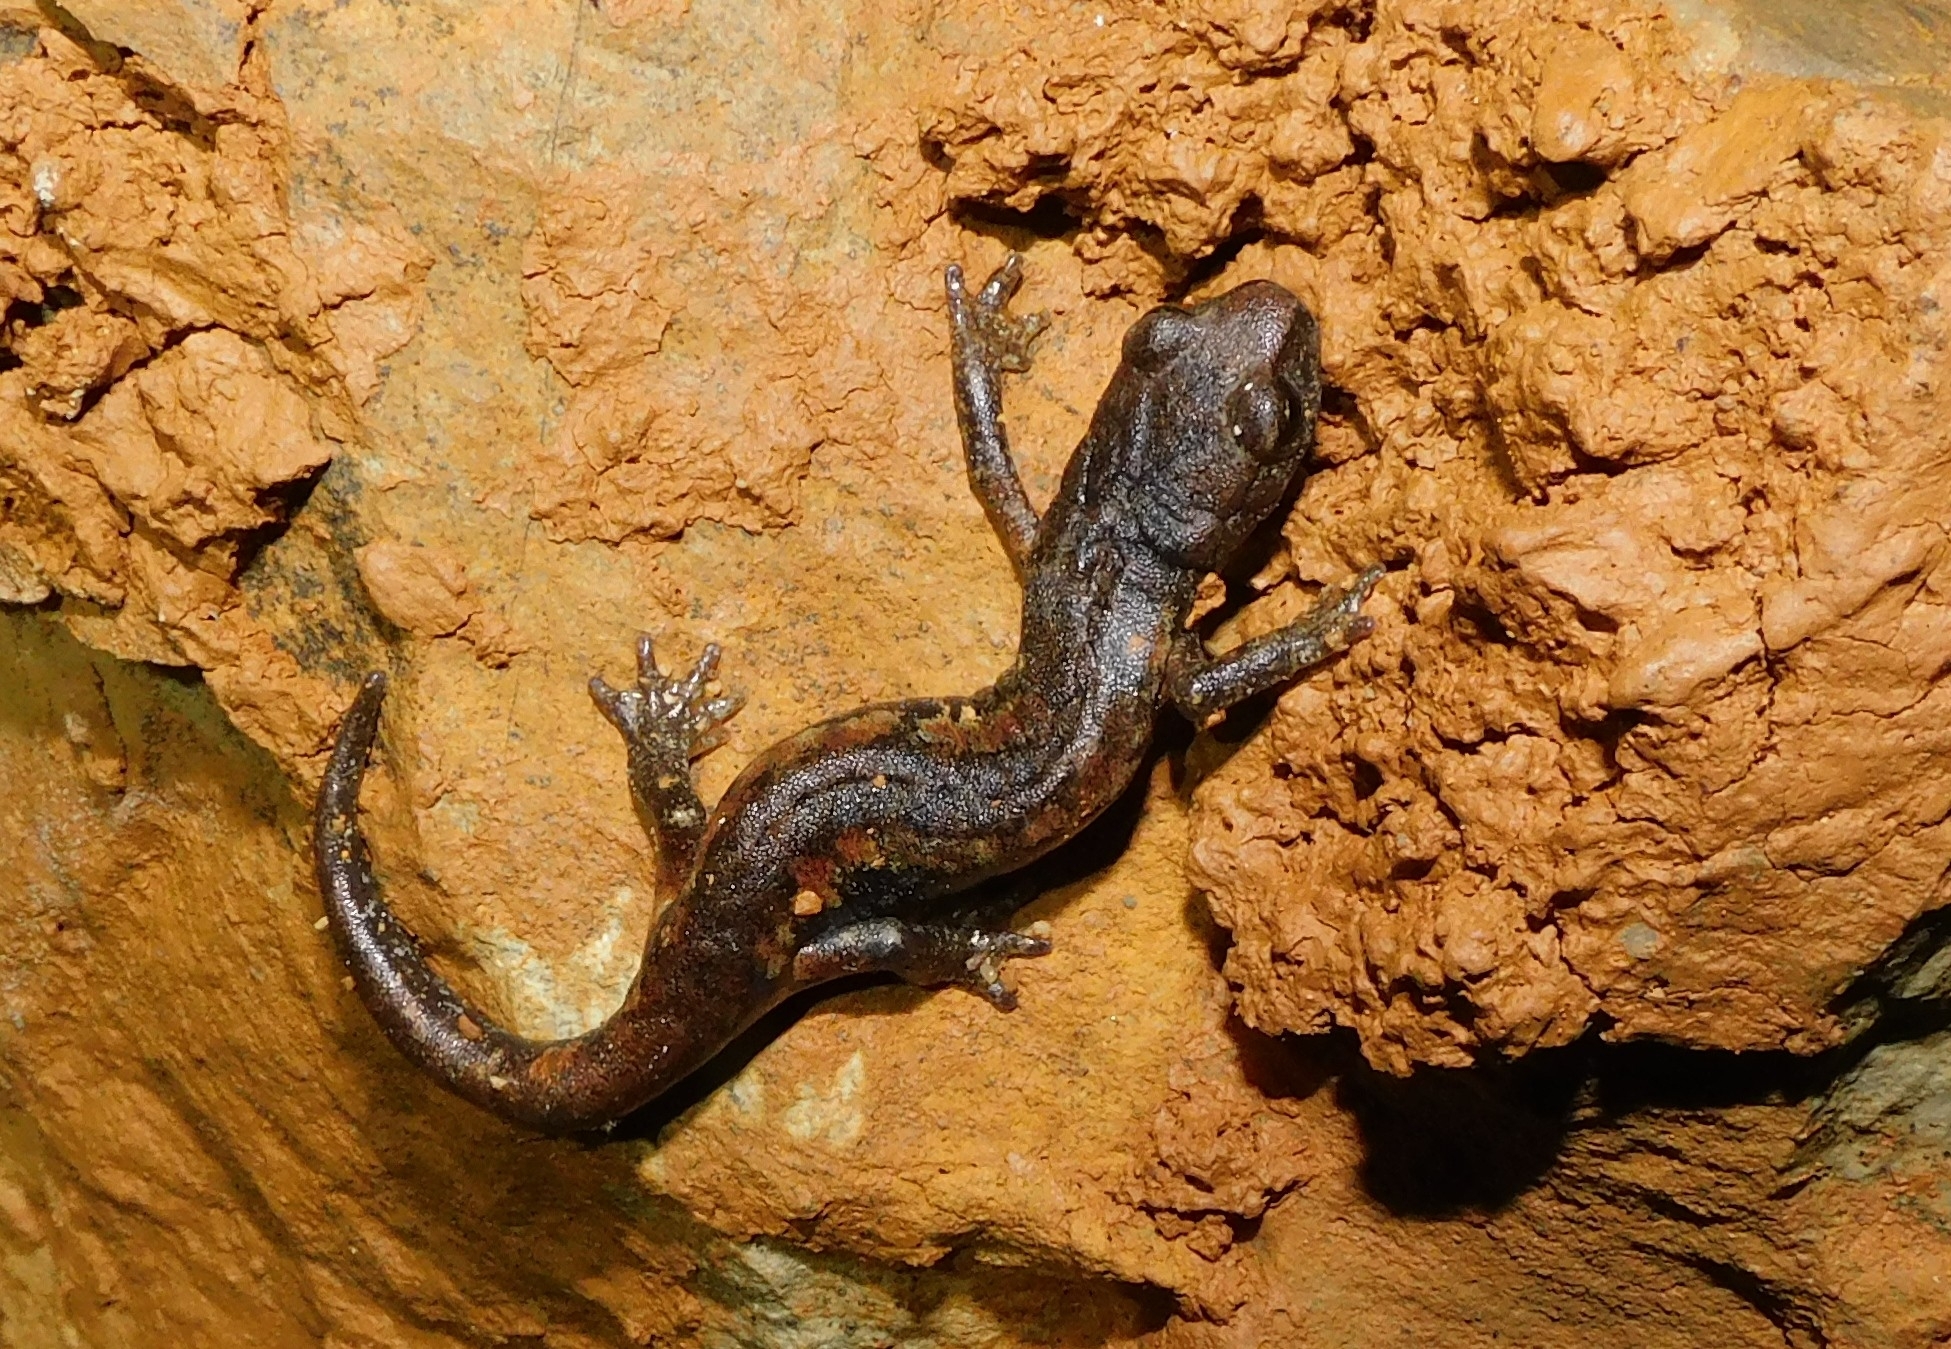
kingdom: Animalia
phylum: Chordata
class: Amphibia
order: Caudata
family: Plethodontidae
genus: Speleomantes
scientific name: Speleomantes ambrosii
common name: Ambrosi's cave salamander
